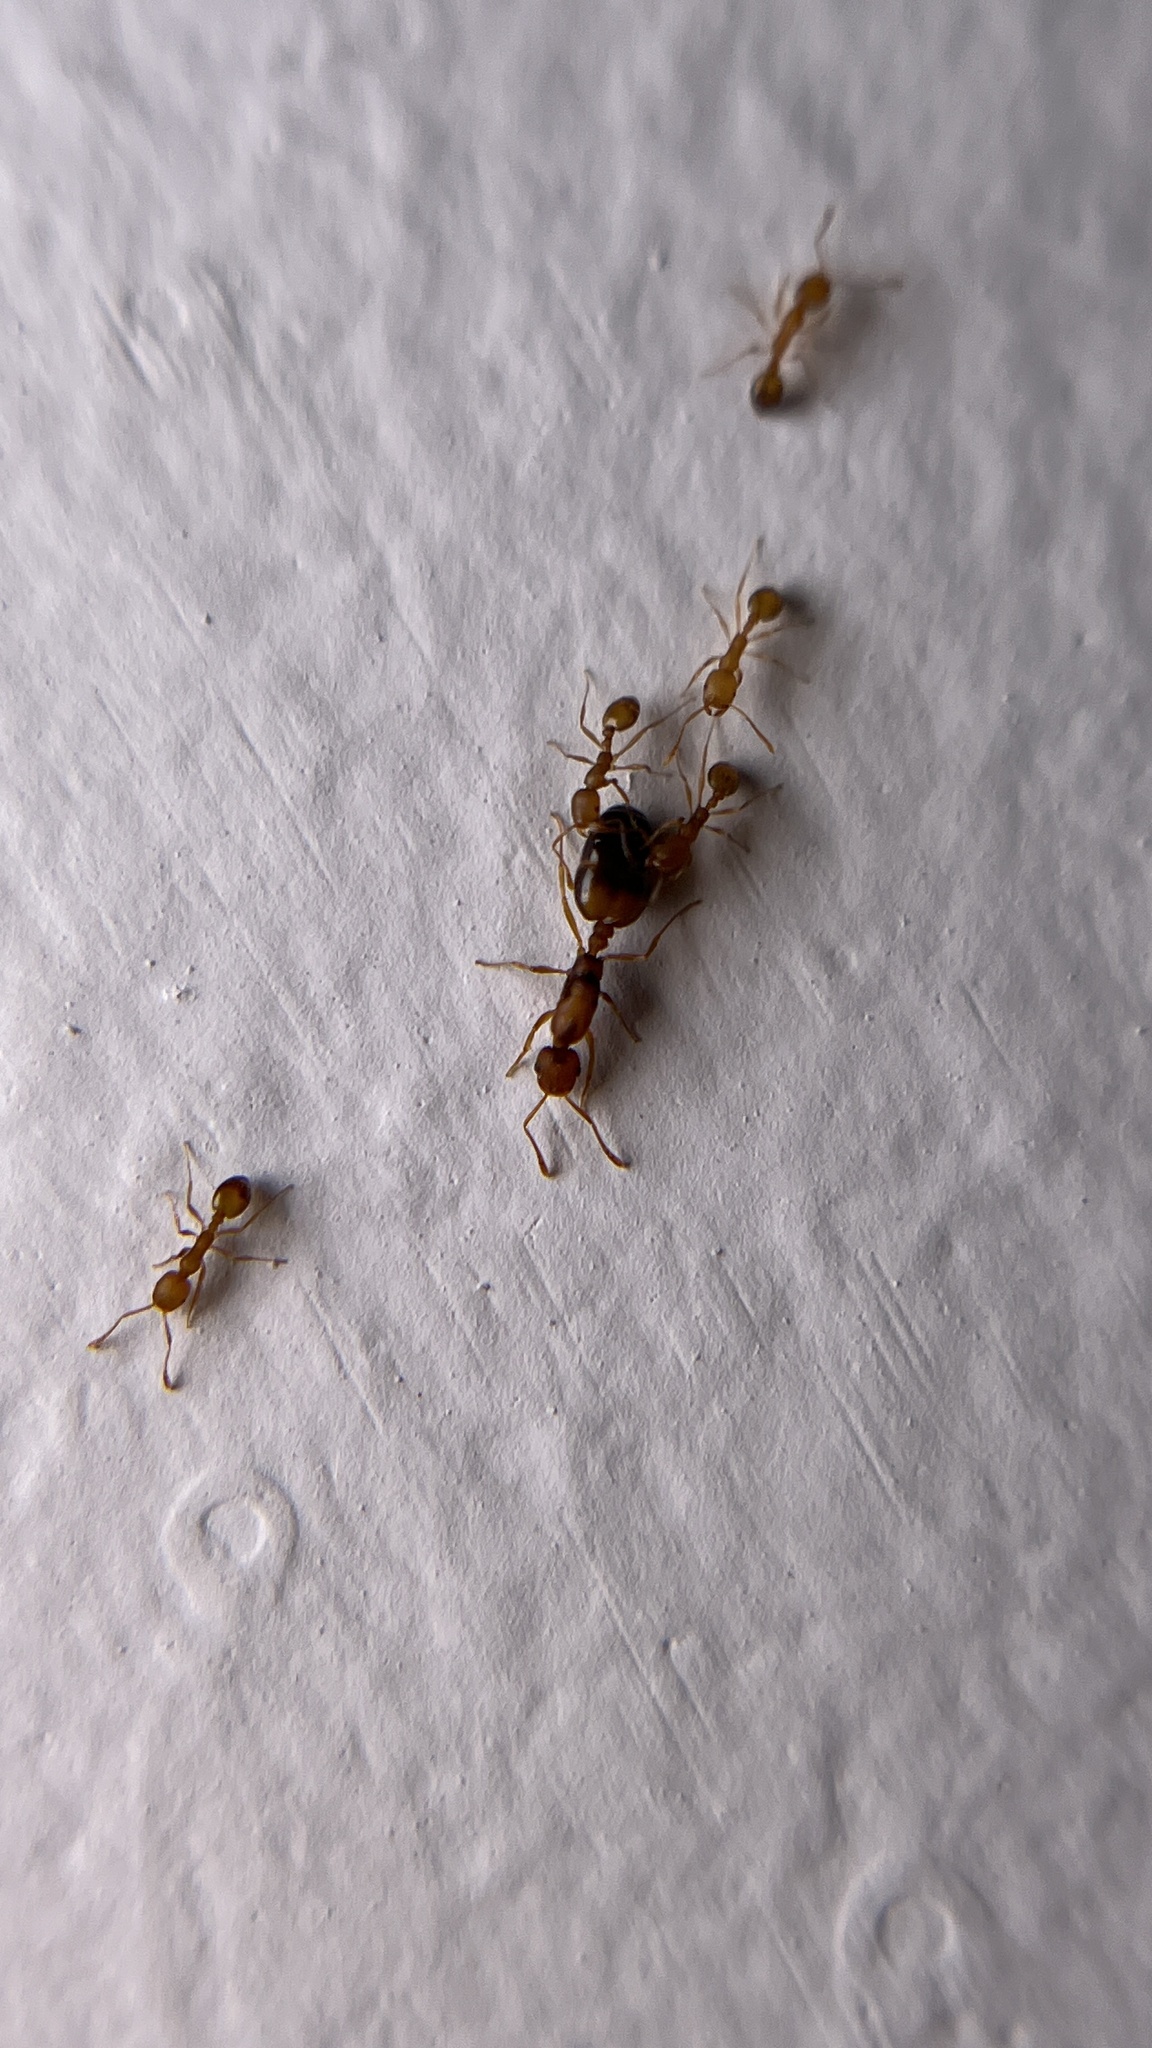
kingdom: Animalia
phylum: Arthropoda
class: Insecta
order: Hymenoptera
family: Formicidae
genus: Monomorium
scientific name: Monomorium pharaonis
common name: Pharaoh ant
